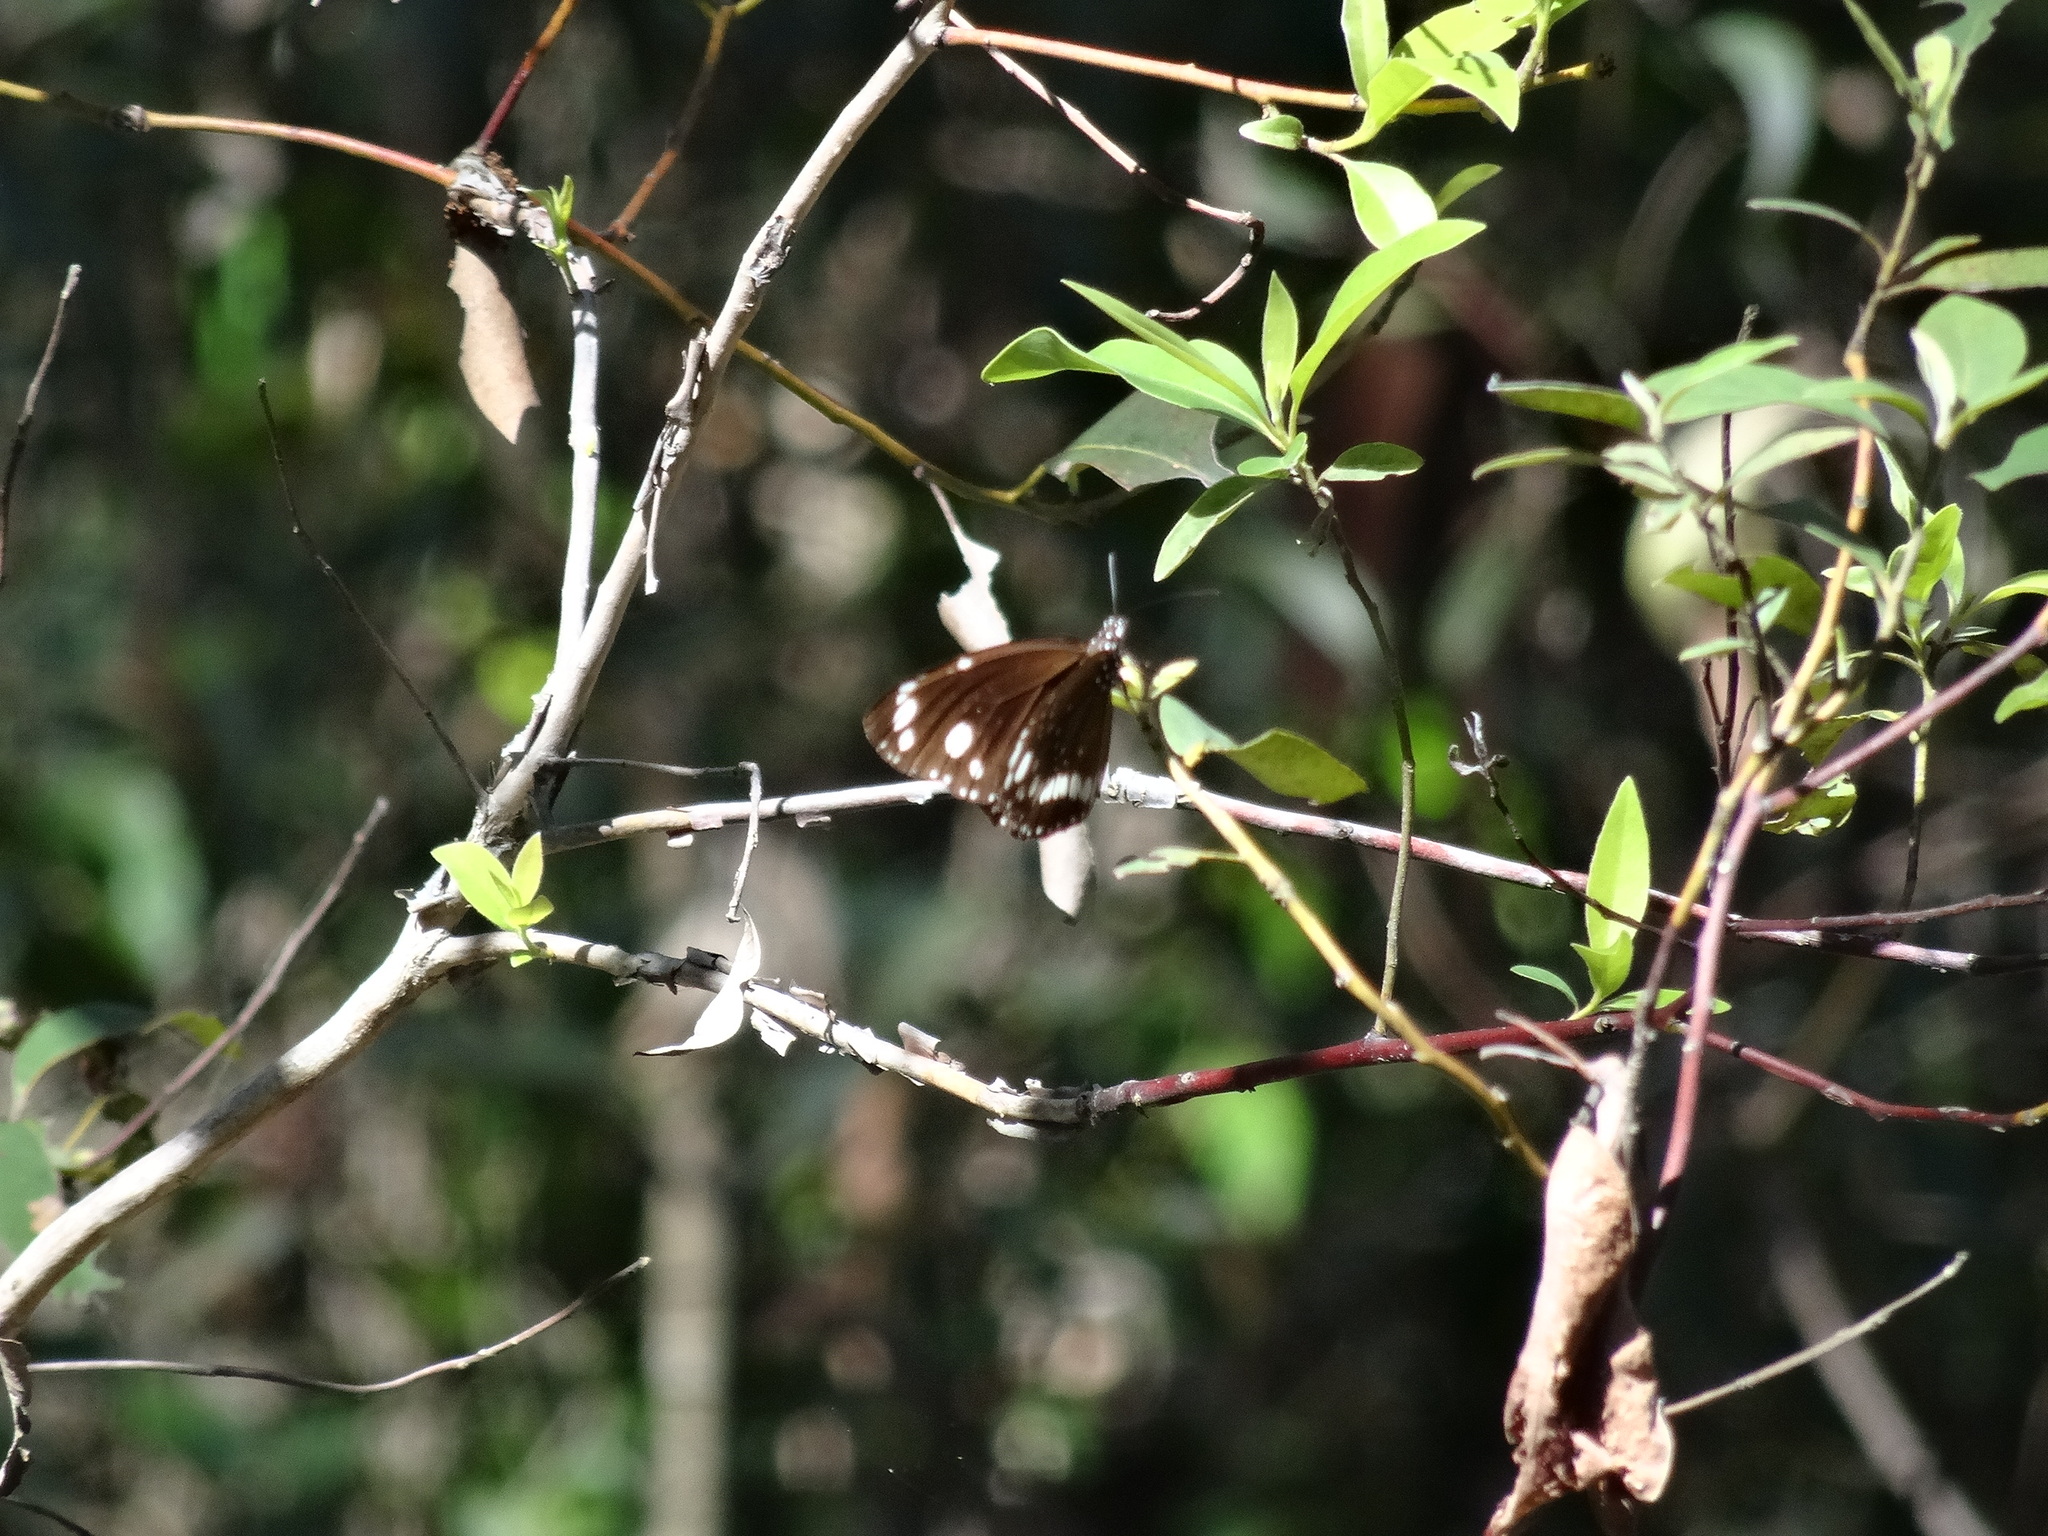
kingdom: Animalia
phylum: Arthropoda
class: Insecta
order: Lepidoptera
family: Nymphalidae
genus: Euploea
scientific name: Euploea core
